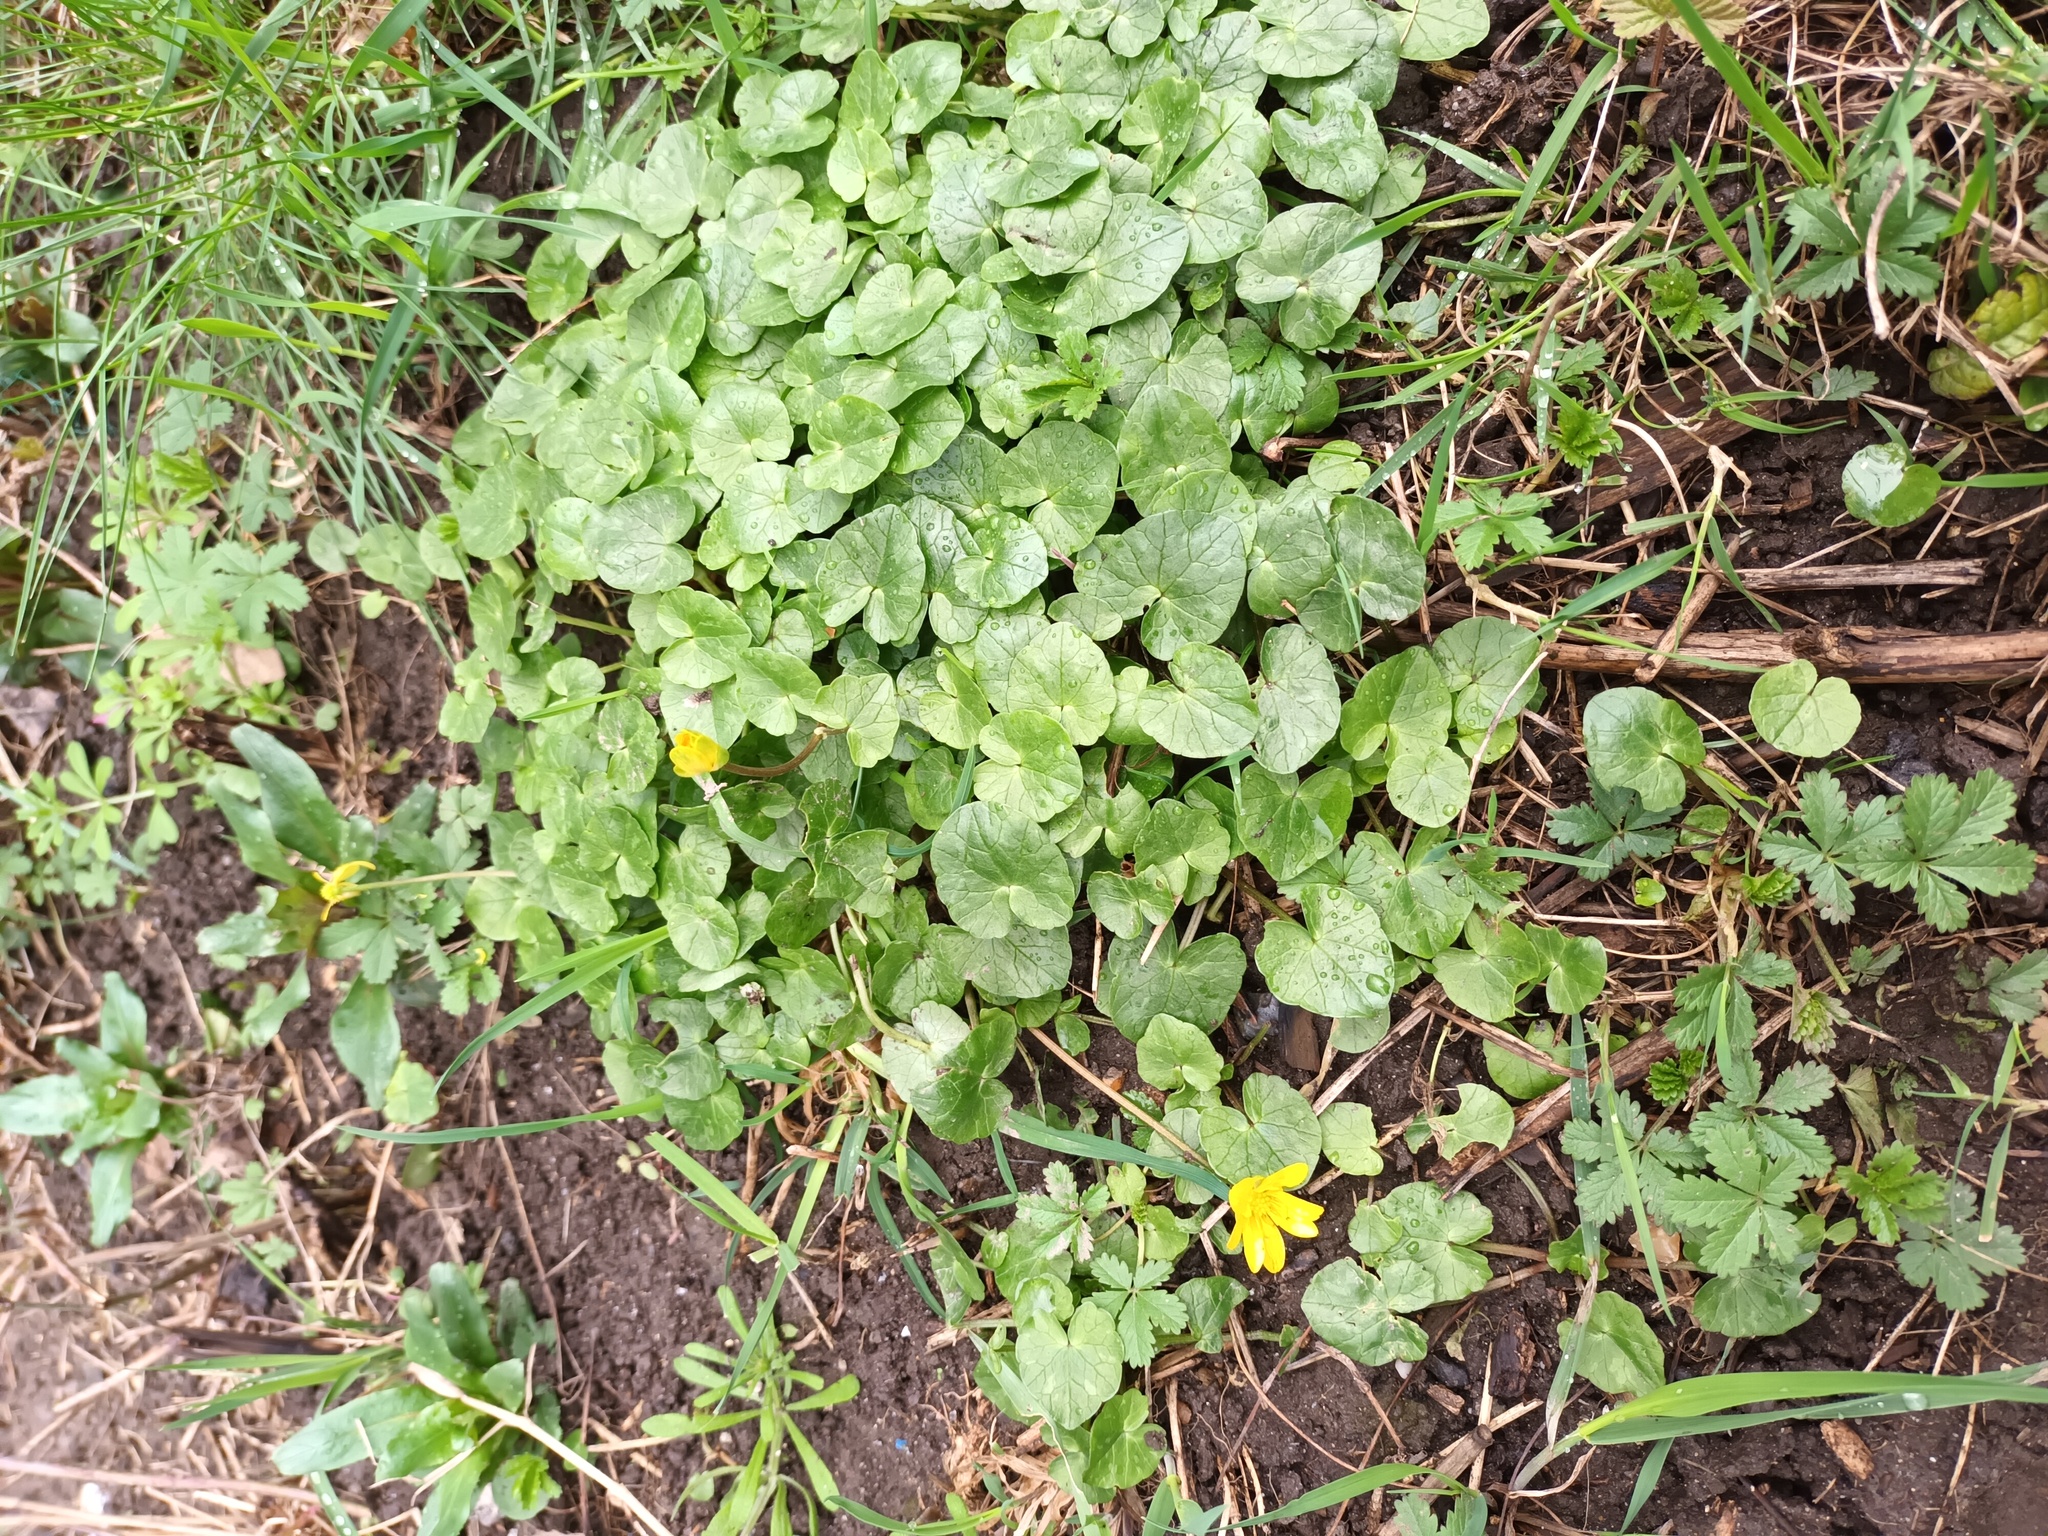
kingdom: Plantae
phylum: Tracheophyta
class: Magnoliopsida
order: Ranunculales
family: Ranunculaceae
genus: Ficaria
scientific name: Ficaria verna
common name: Lesser celandine
